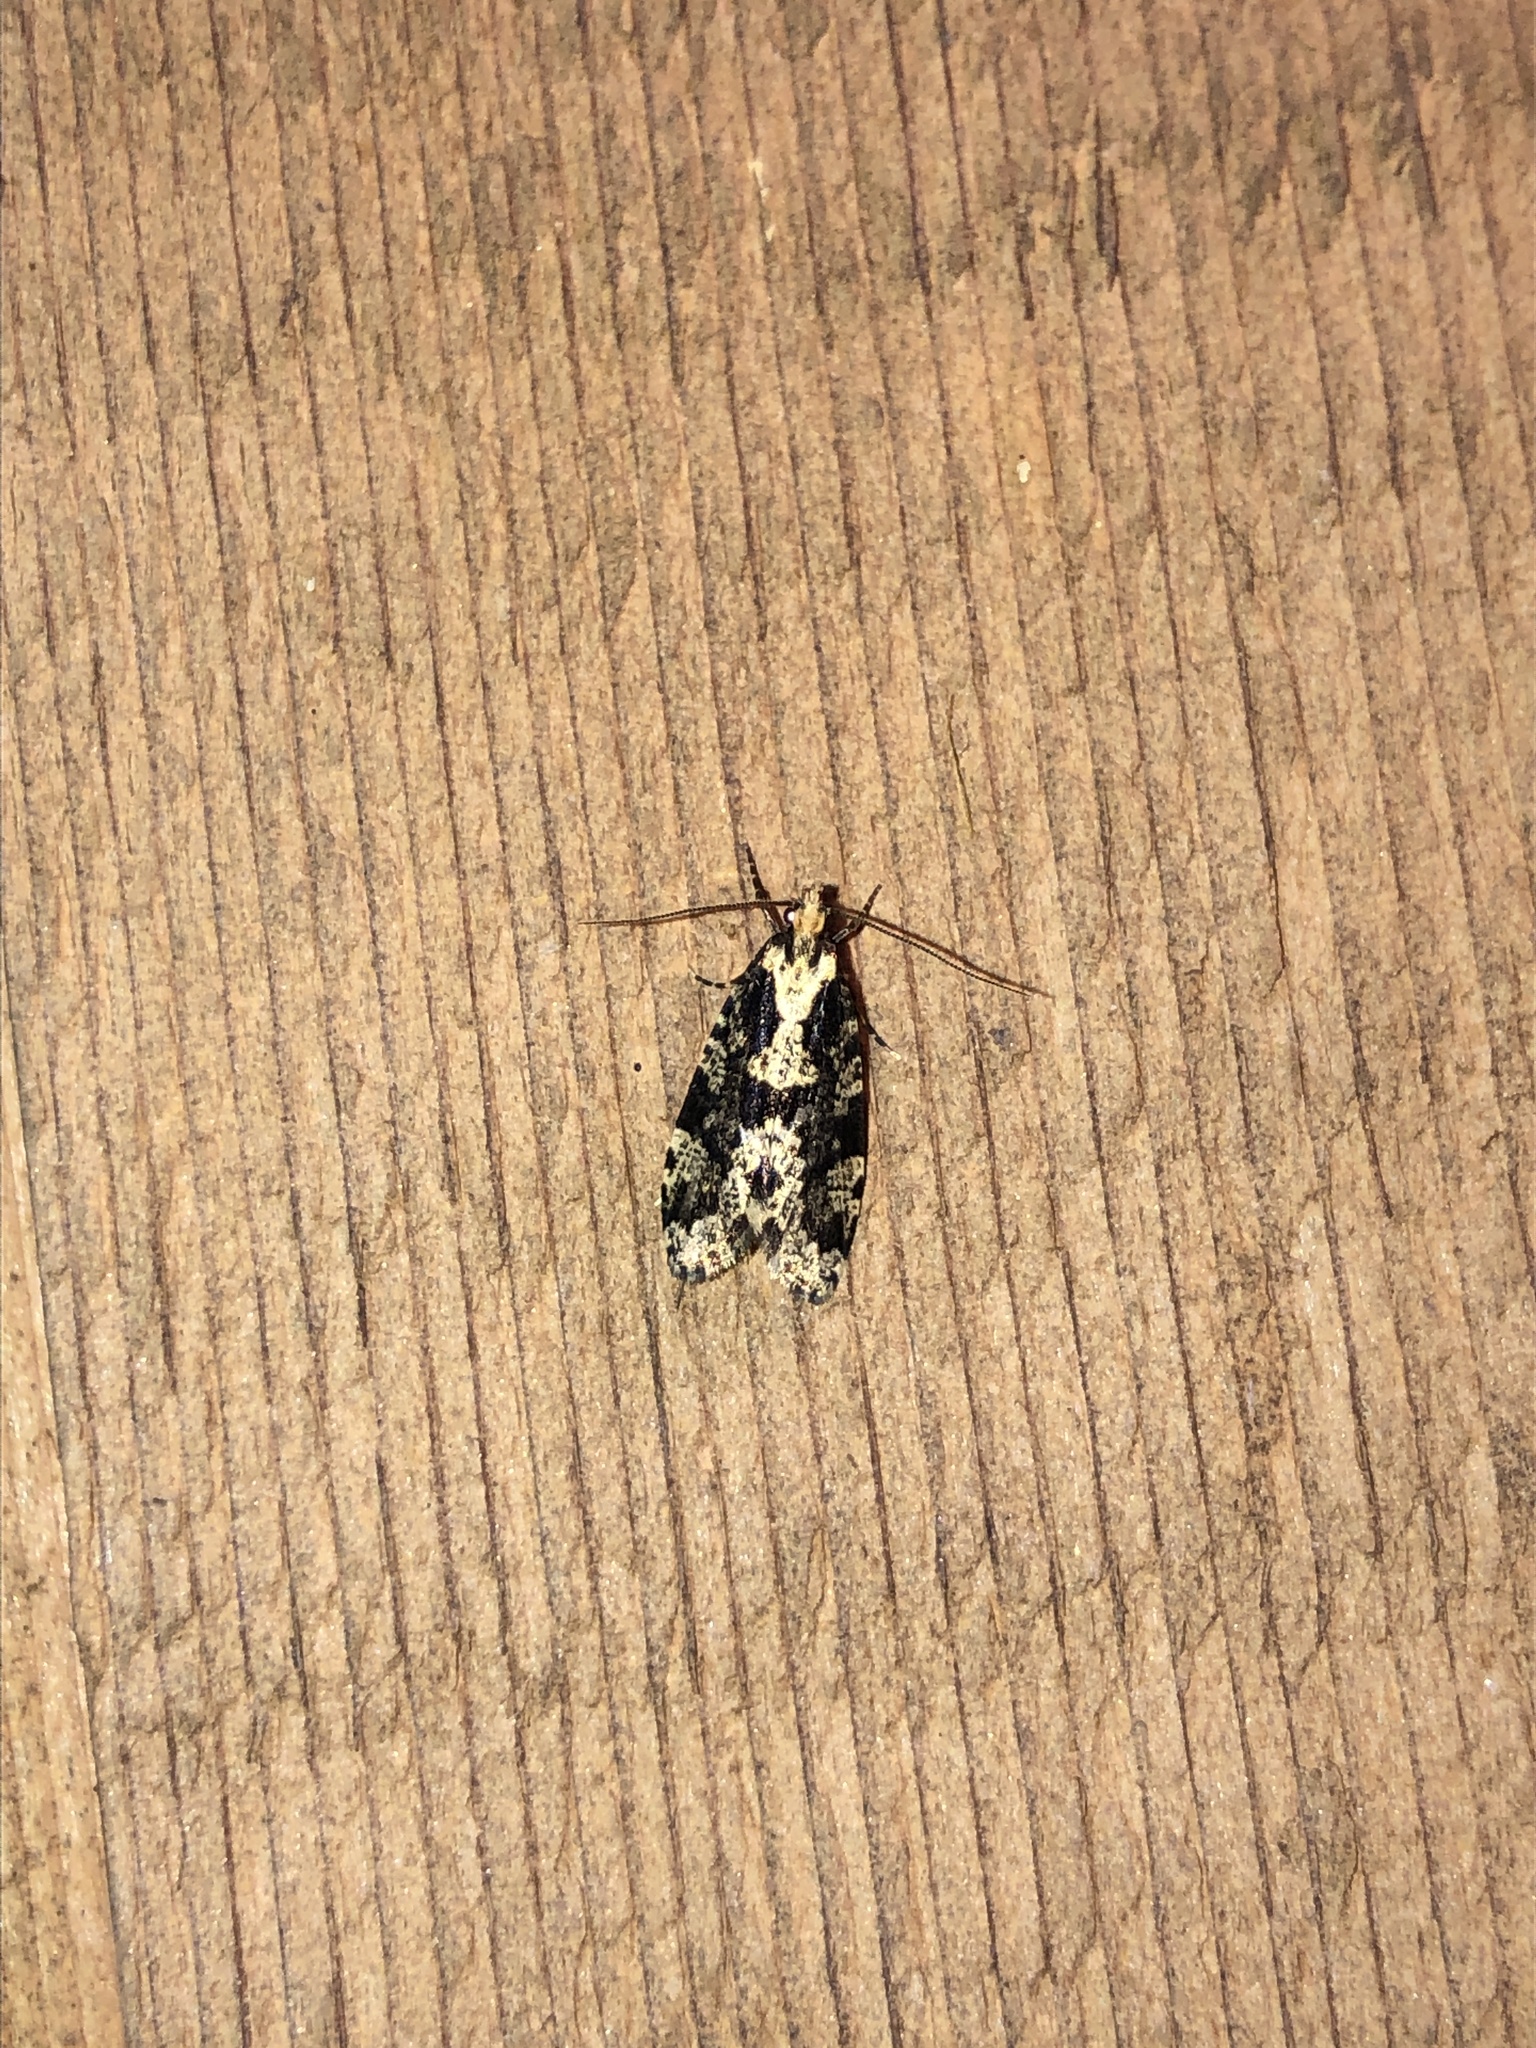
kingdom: Animalia
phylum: Arthropoda
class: Insecta
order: Lepidoptera
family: Tineidae
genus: Morophagoides
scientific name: Morophagoides burkerella
